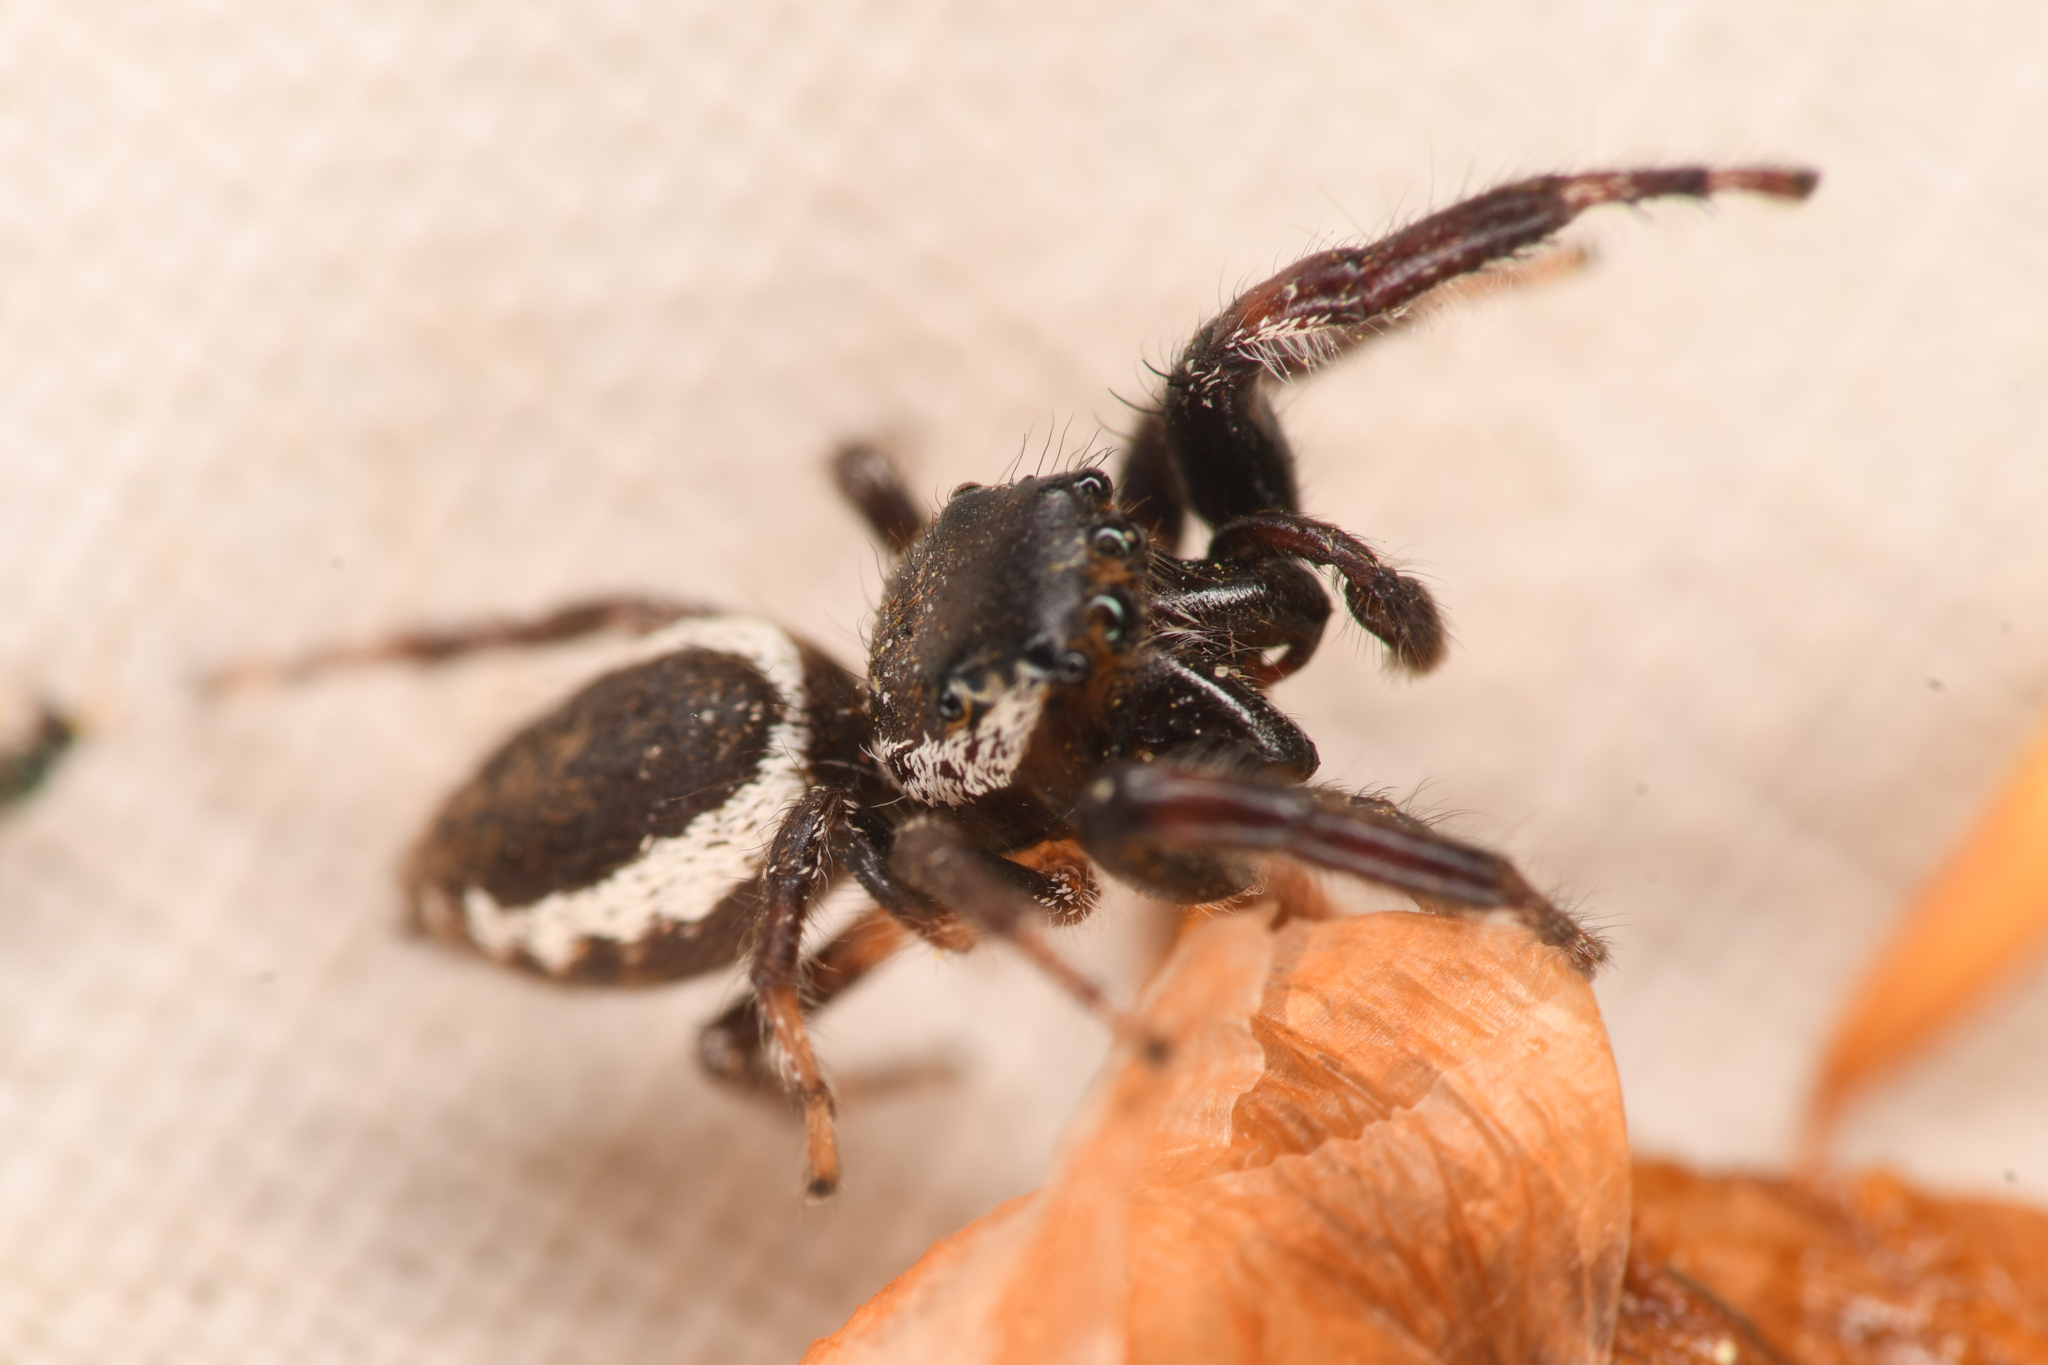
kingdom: Animalia
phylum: Arthropoda
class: Arachnida
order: Araneae
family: Salticidae
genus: Eris
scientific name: Eris militaris
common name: Bronze jumper
